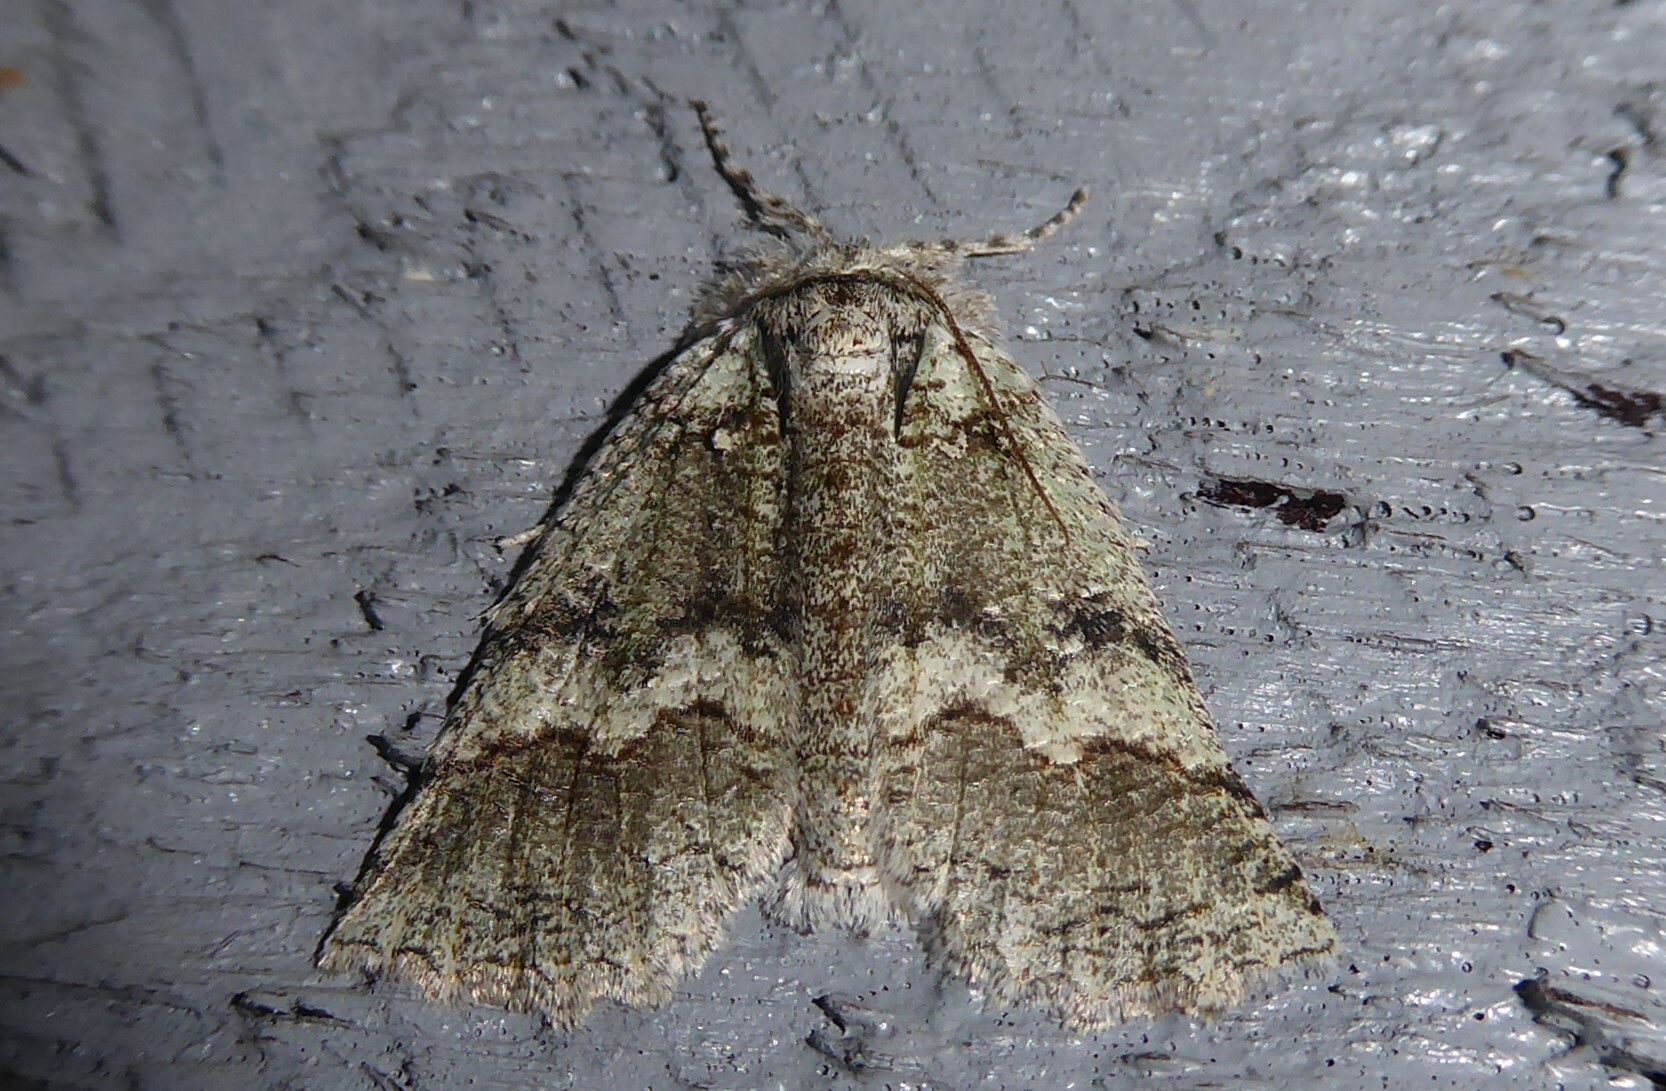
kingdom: Animalia
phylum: Arthropoda
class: Insecta
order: Lepidoptera
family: Geometridae
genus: Declana
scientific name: Declana floccosa
